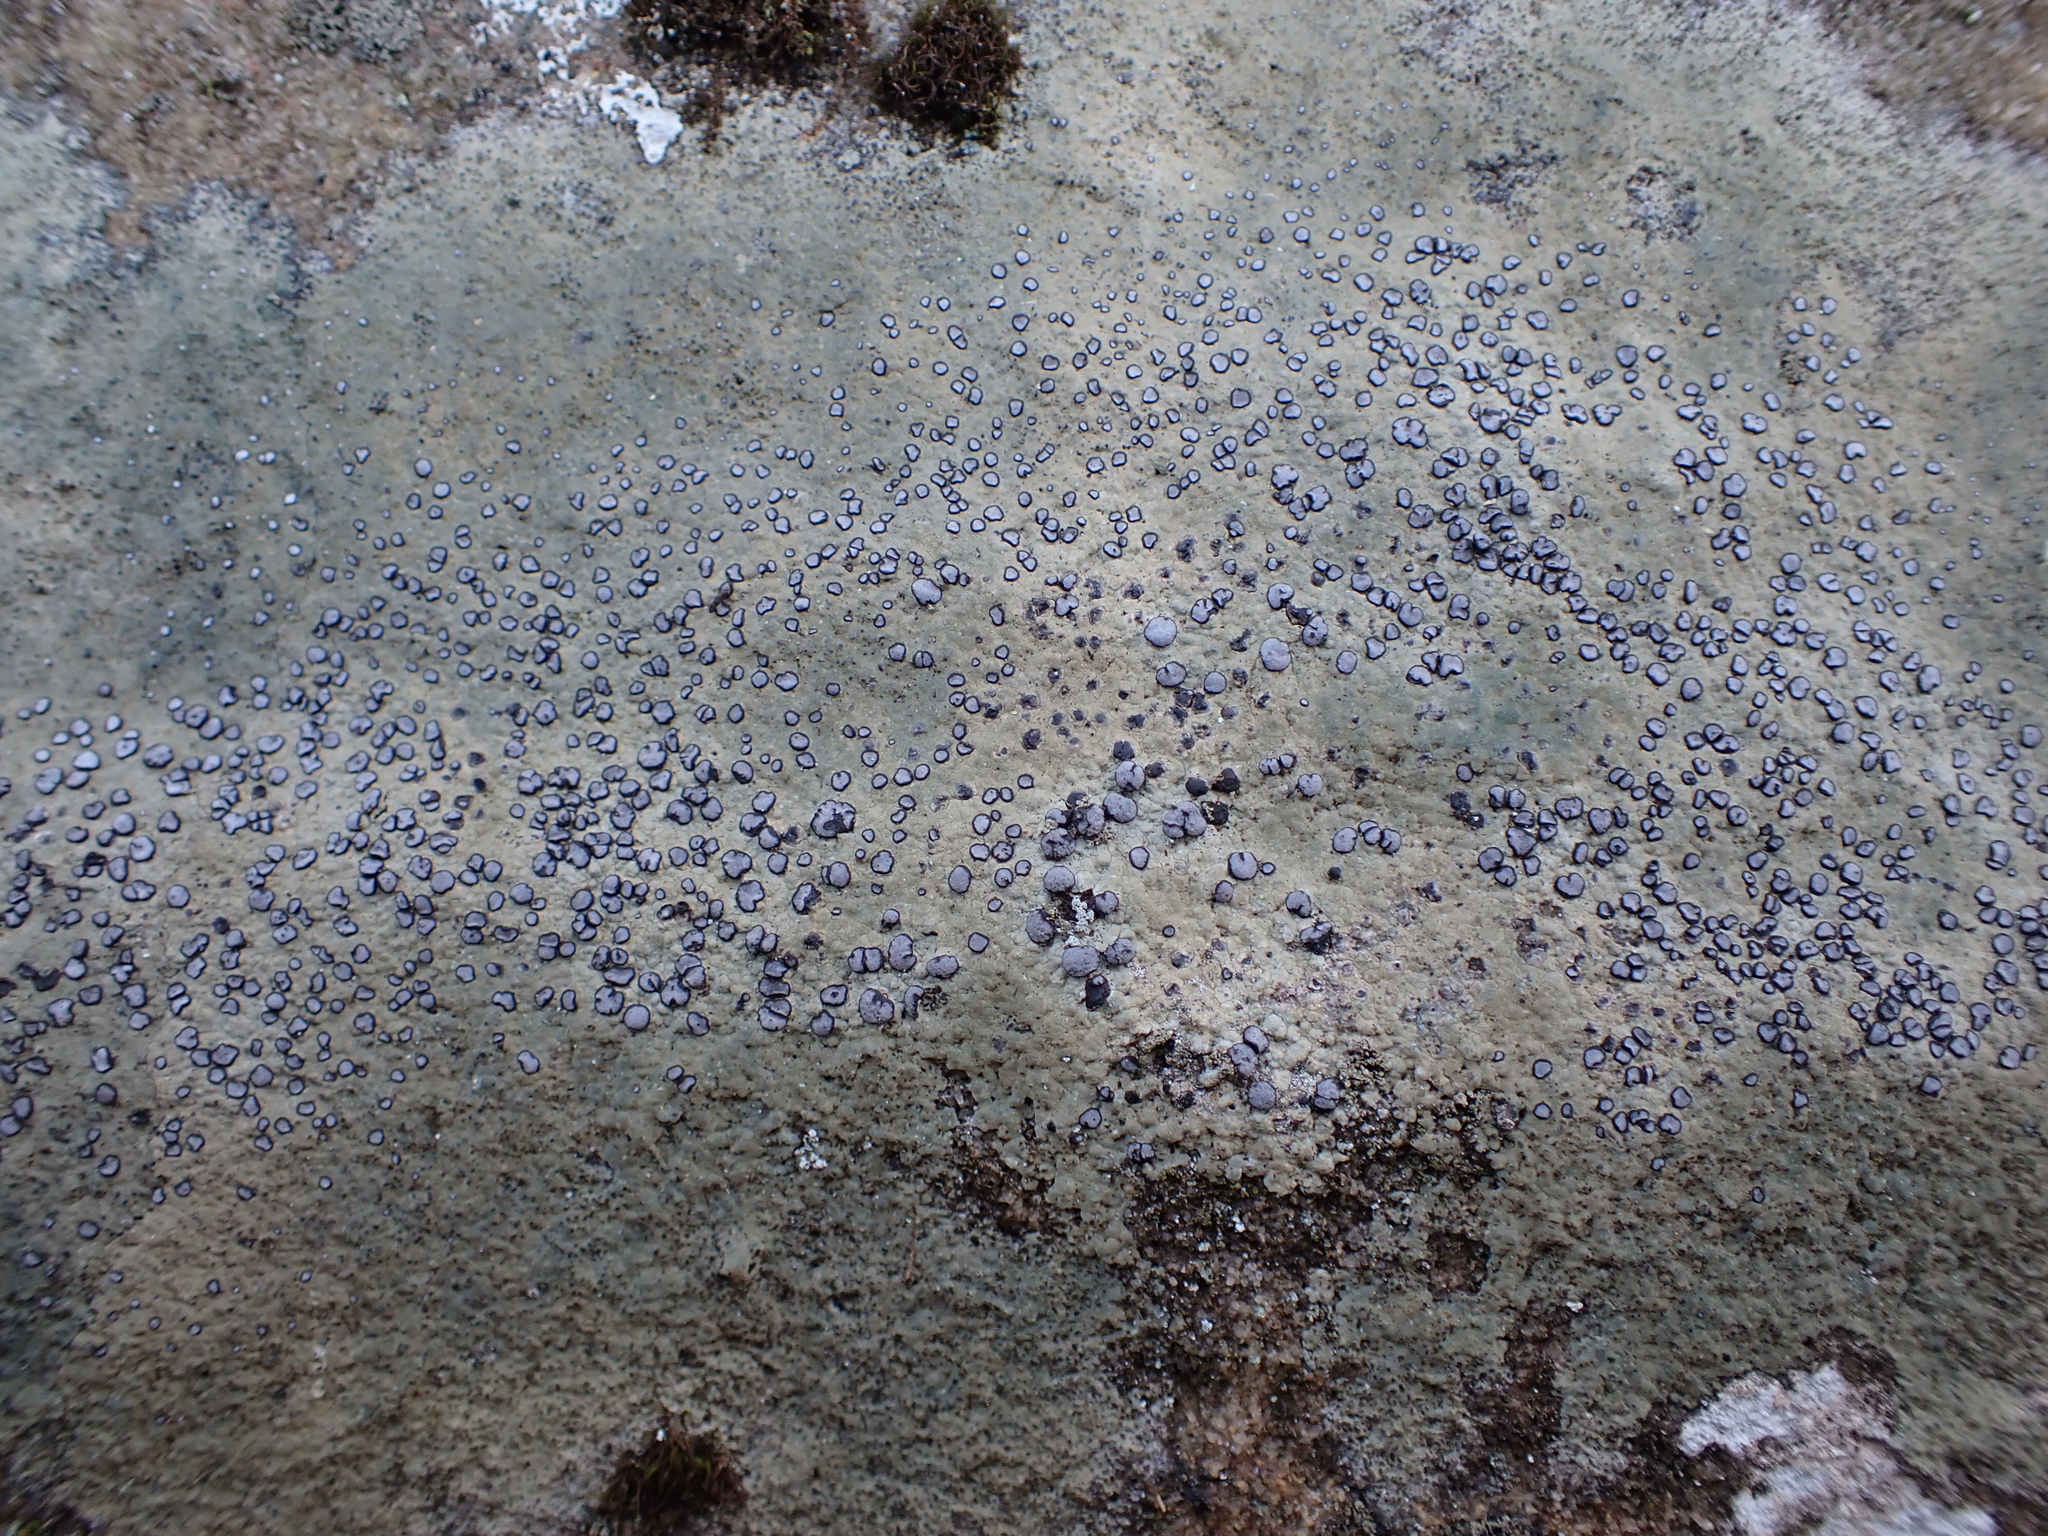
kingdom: Fungi
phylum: Ascomycota
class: Lecanoromycetes
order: Lecideales
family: Lecideaceae
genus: Porpidia
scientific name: Porpidia albocaerulescens
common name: Smokey-eyed boulder lichen
